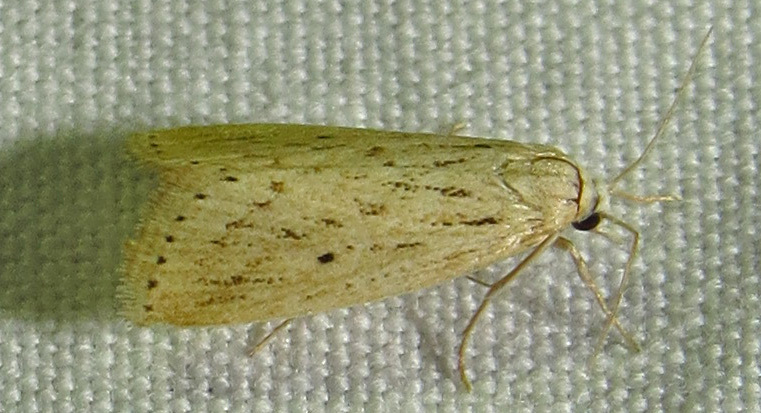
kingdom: Animalia
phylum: Arthropoda
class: Insecta
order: Lepidoptera
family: Crambidae
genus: Diatraea
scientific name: Diatraea lisetta
